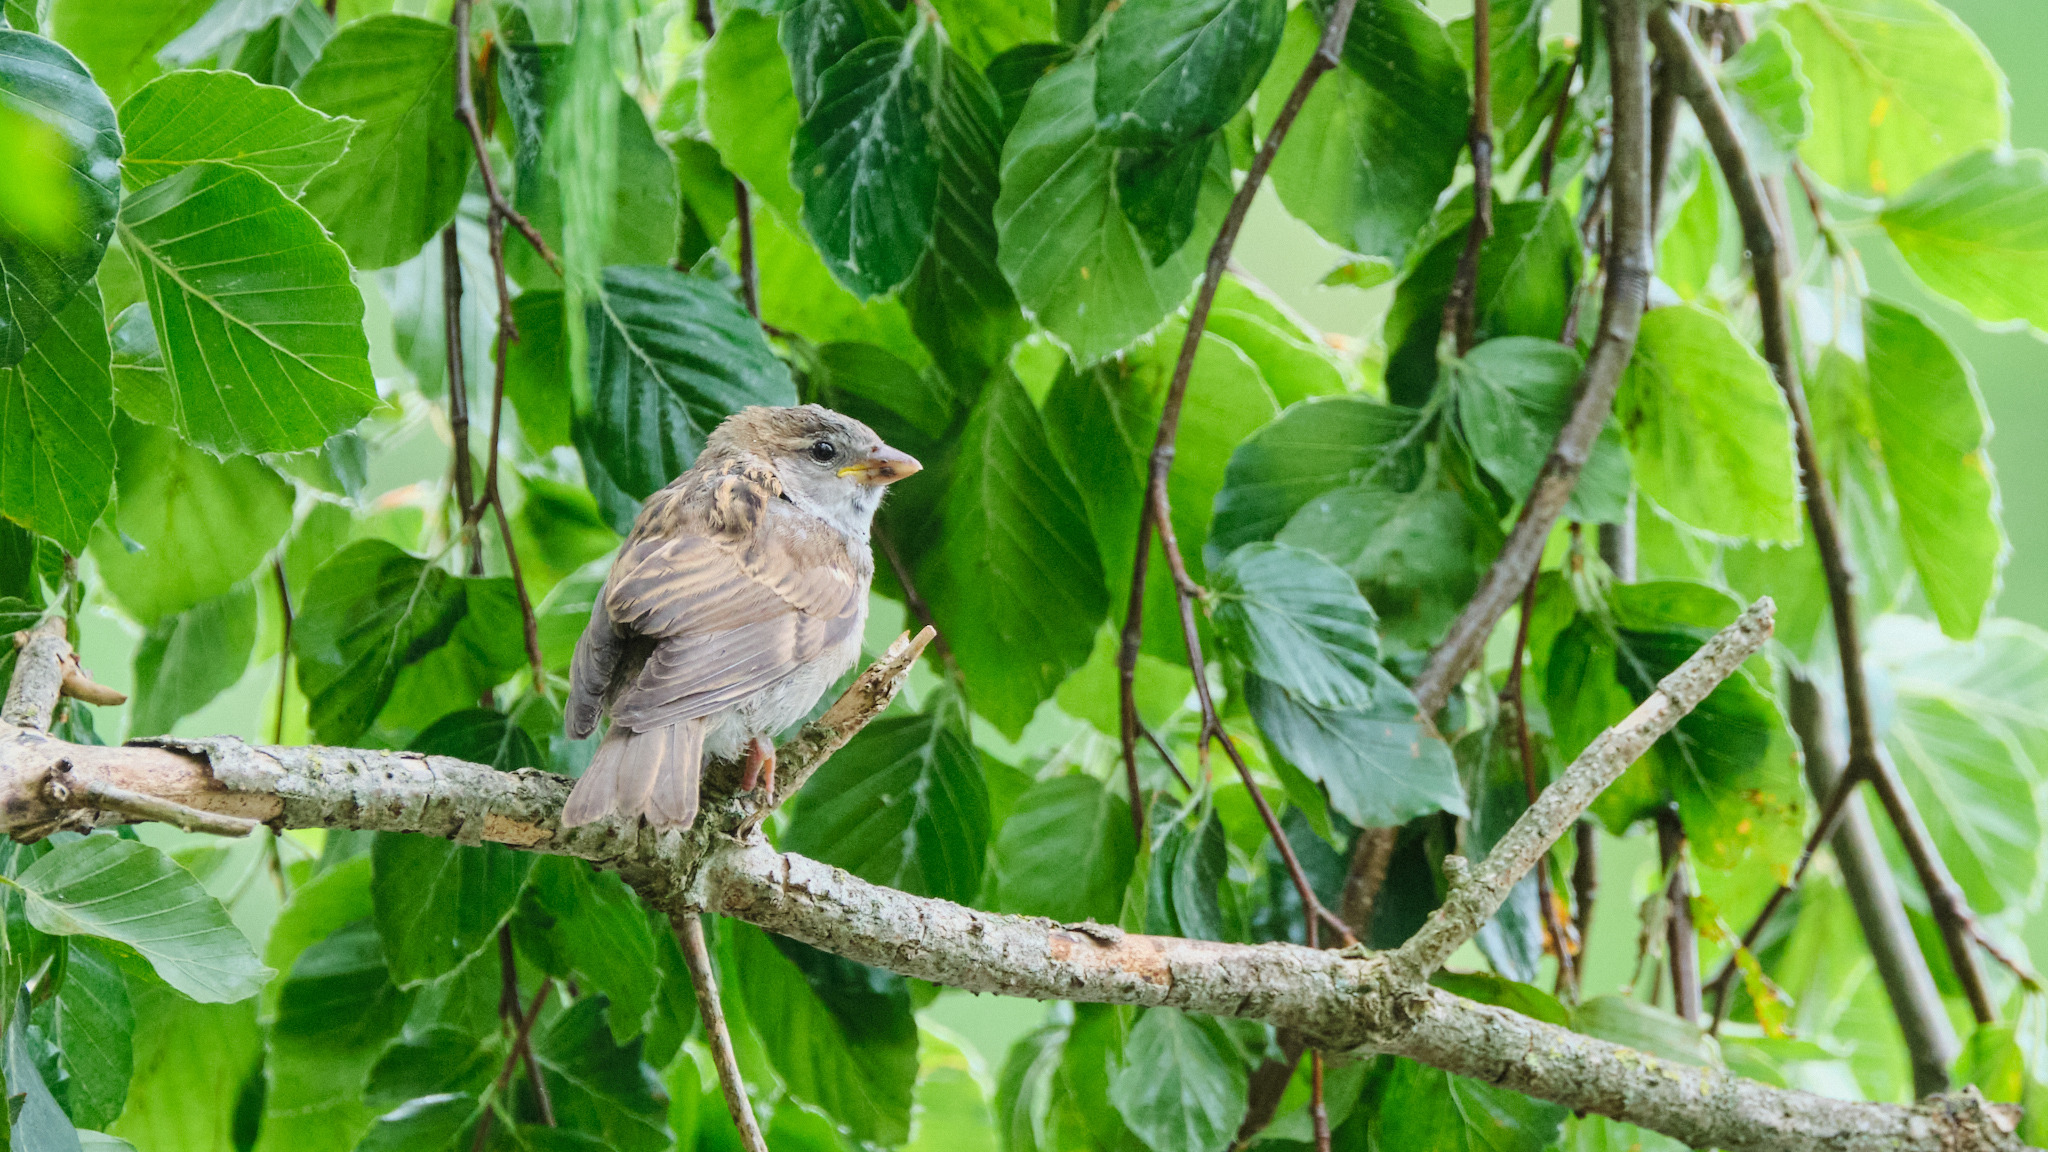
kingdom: Animalia
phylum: Chordata
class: Aves
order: Passeriformes
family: Passeridae
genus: Passer
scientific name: Passer domesticus
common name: House sparrow
